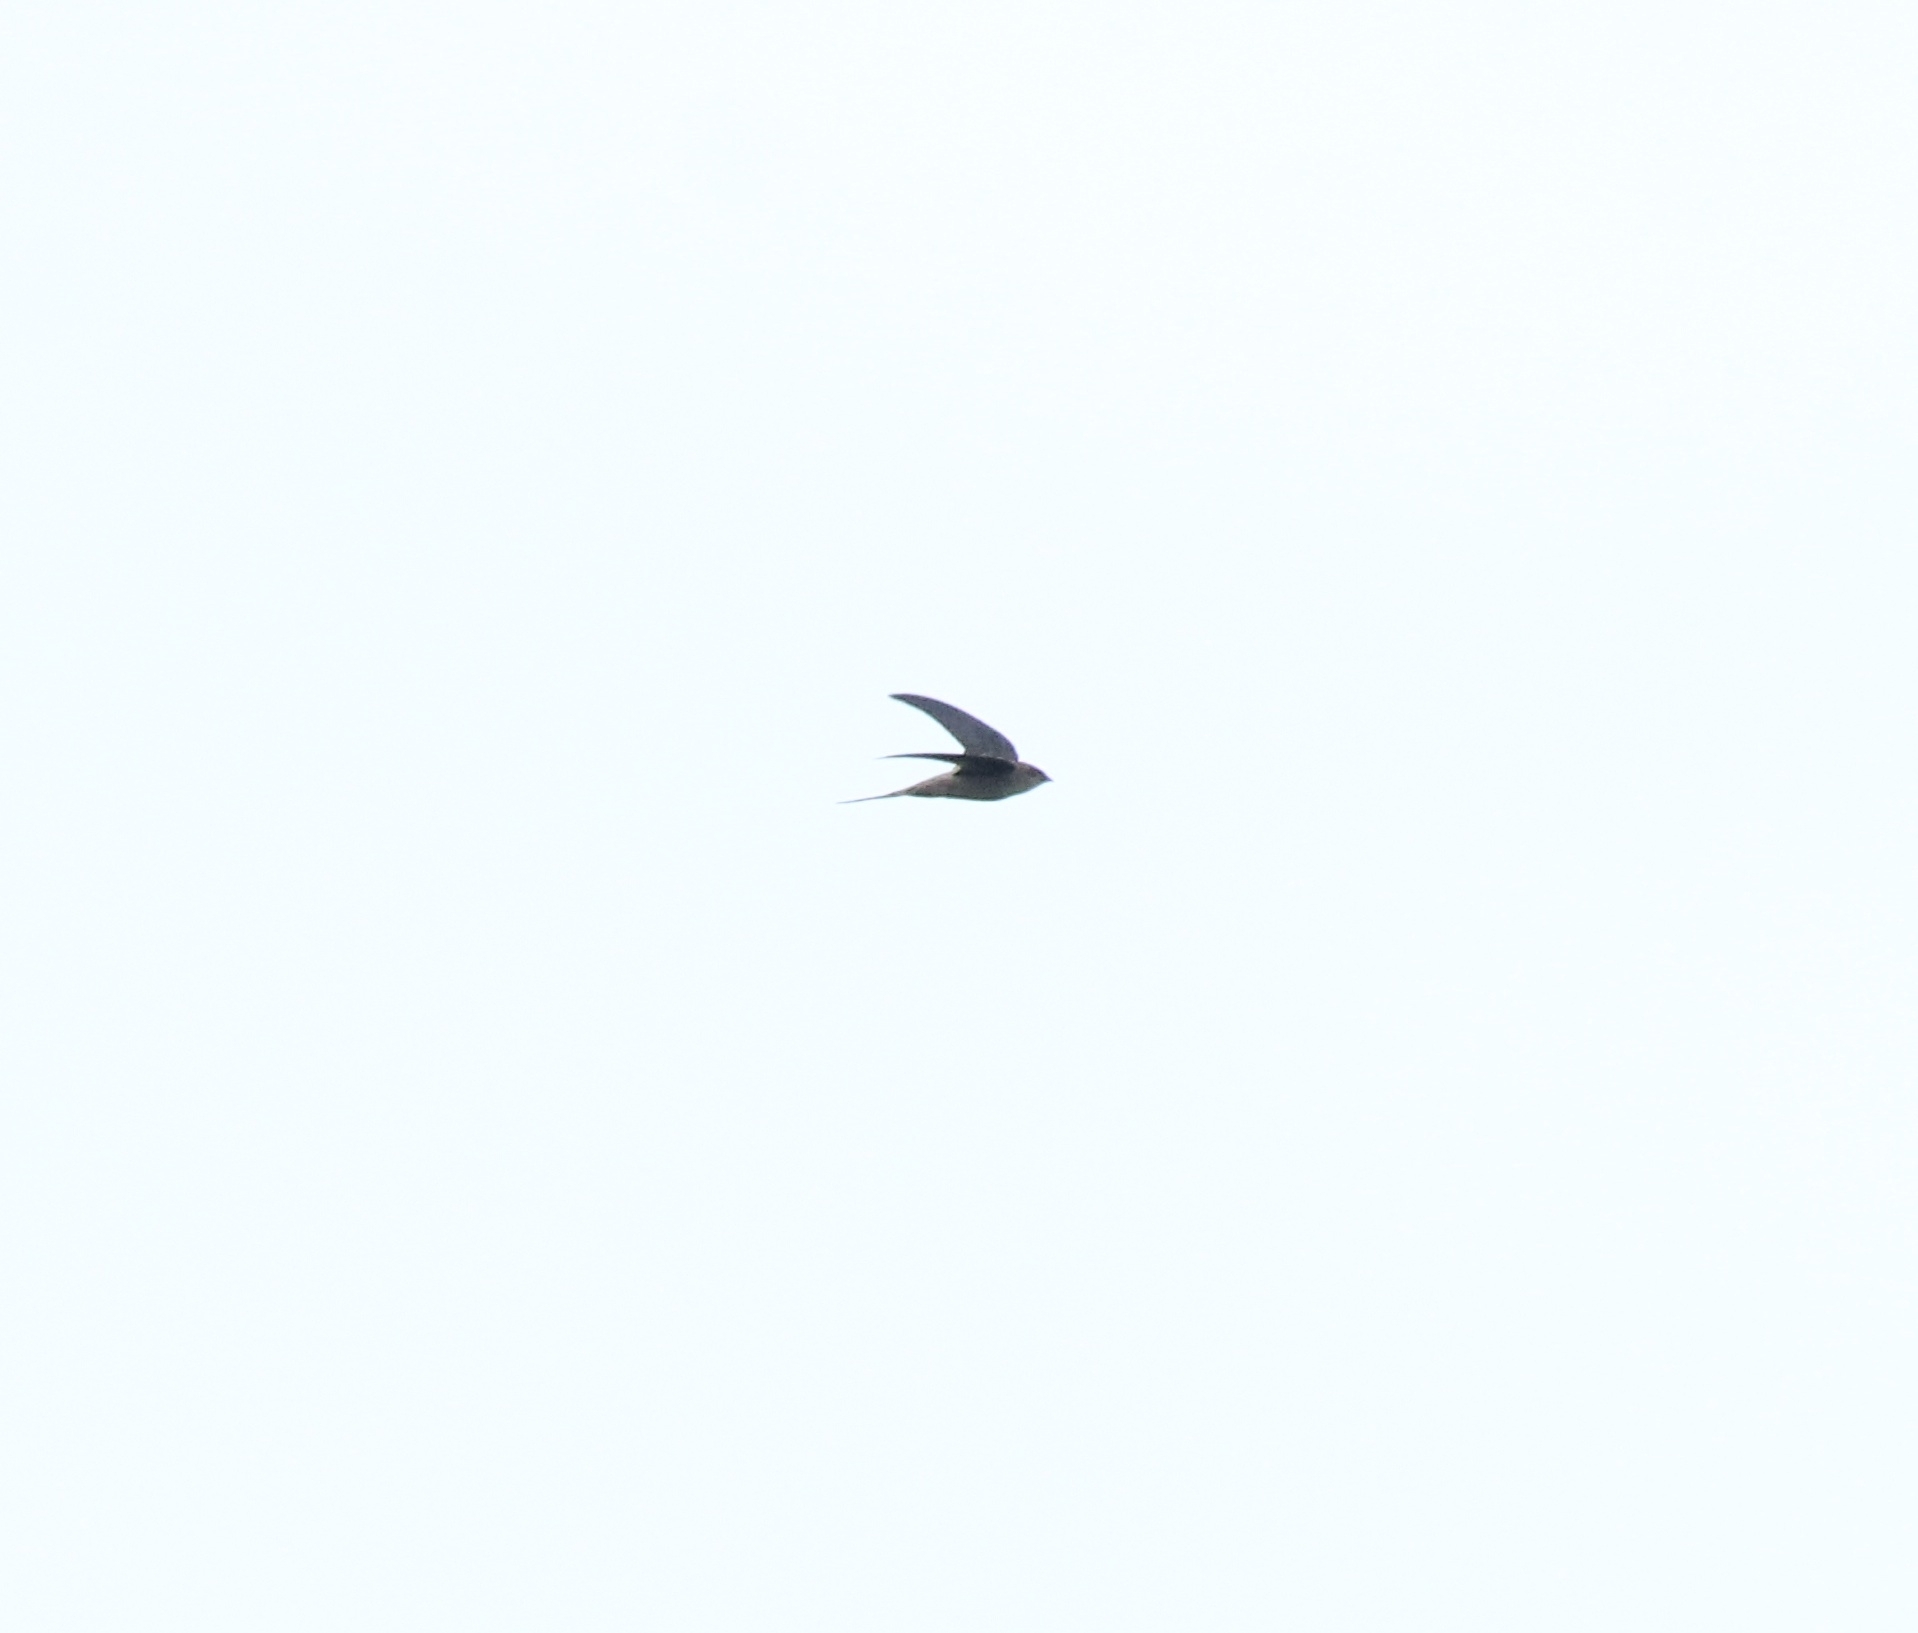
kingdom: Animalia
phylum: Chordata
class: Aves
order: Apodiformes
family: Apodidae
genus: Cypsiurus
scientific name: Cypsiurus balasiensis
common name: Asian palm swift
